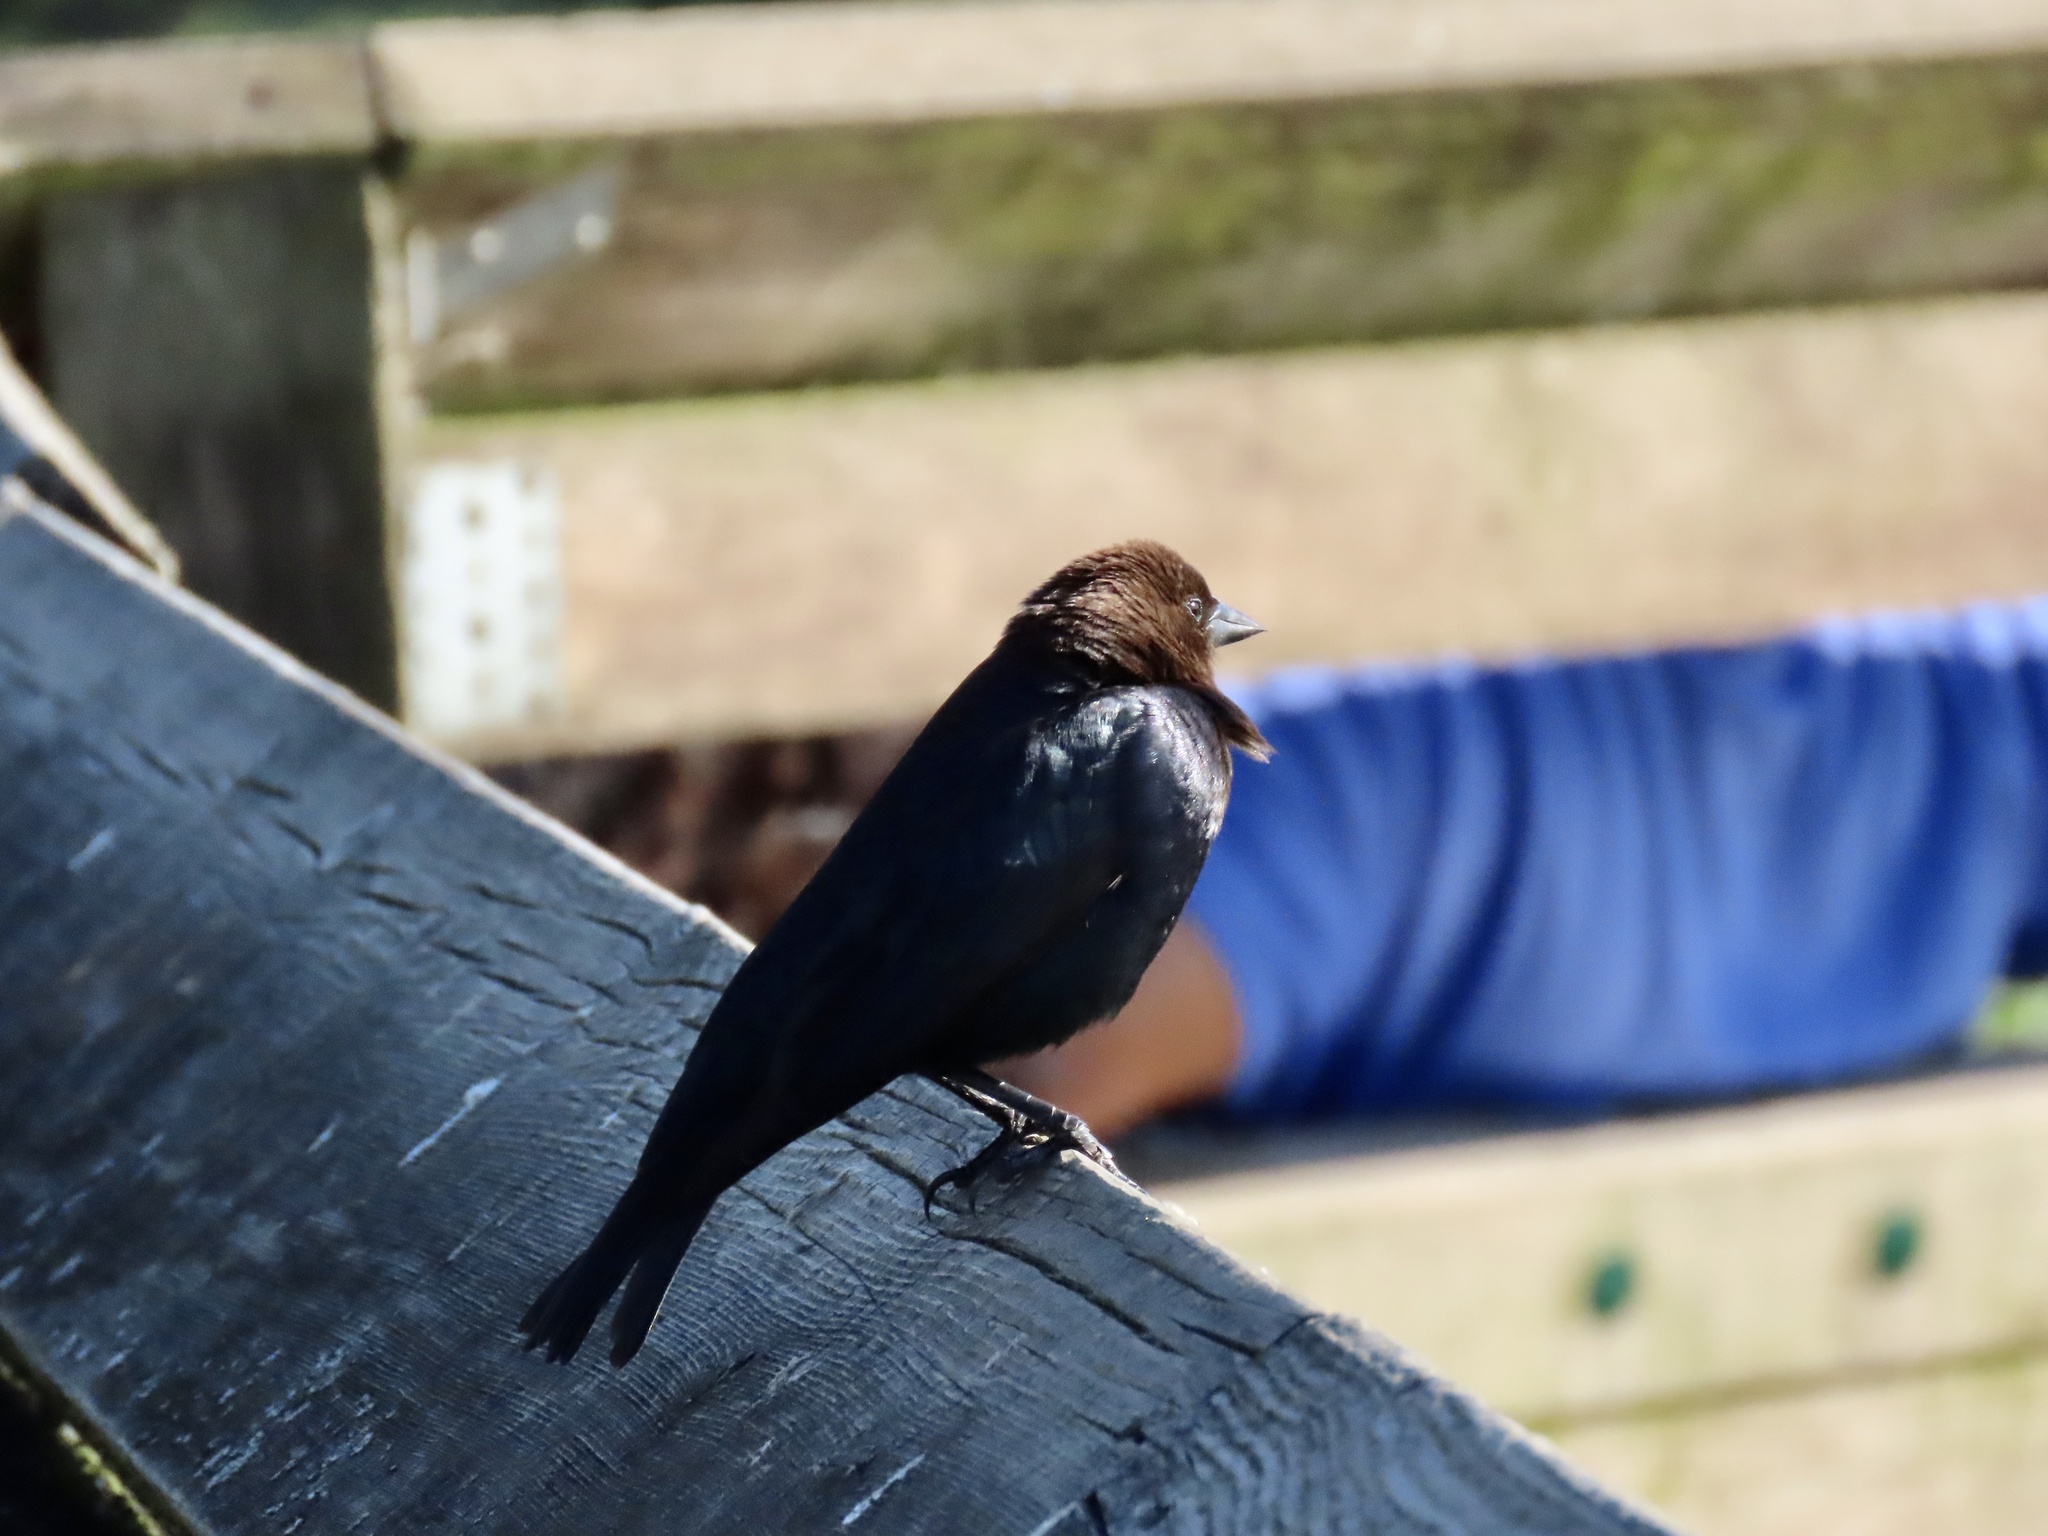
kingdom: Animalia
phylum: Chordata
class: Aves
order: Passeriformes
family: Icteridae
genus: Molothrus
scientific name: Molothrus ater
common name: Brown-headed cowbird
